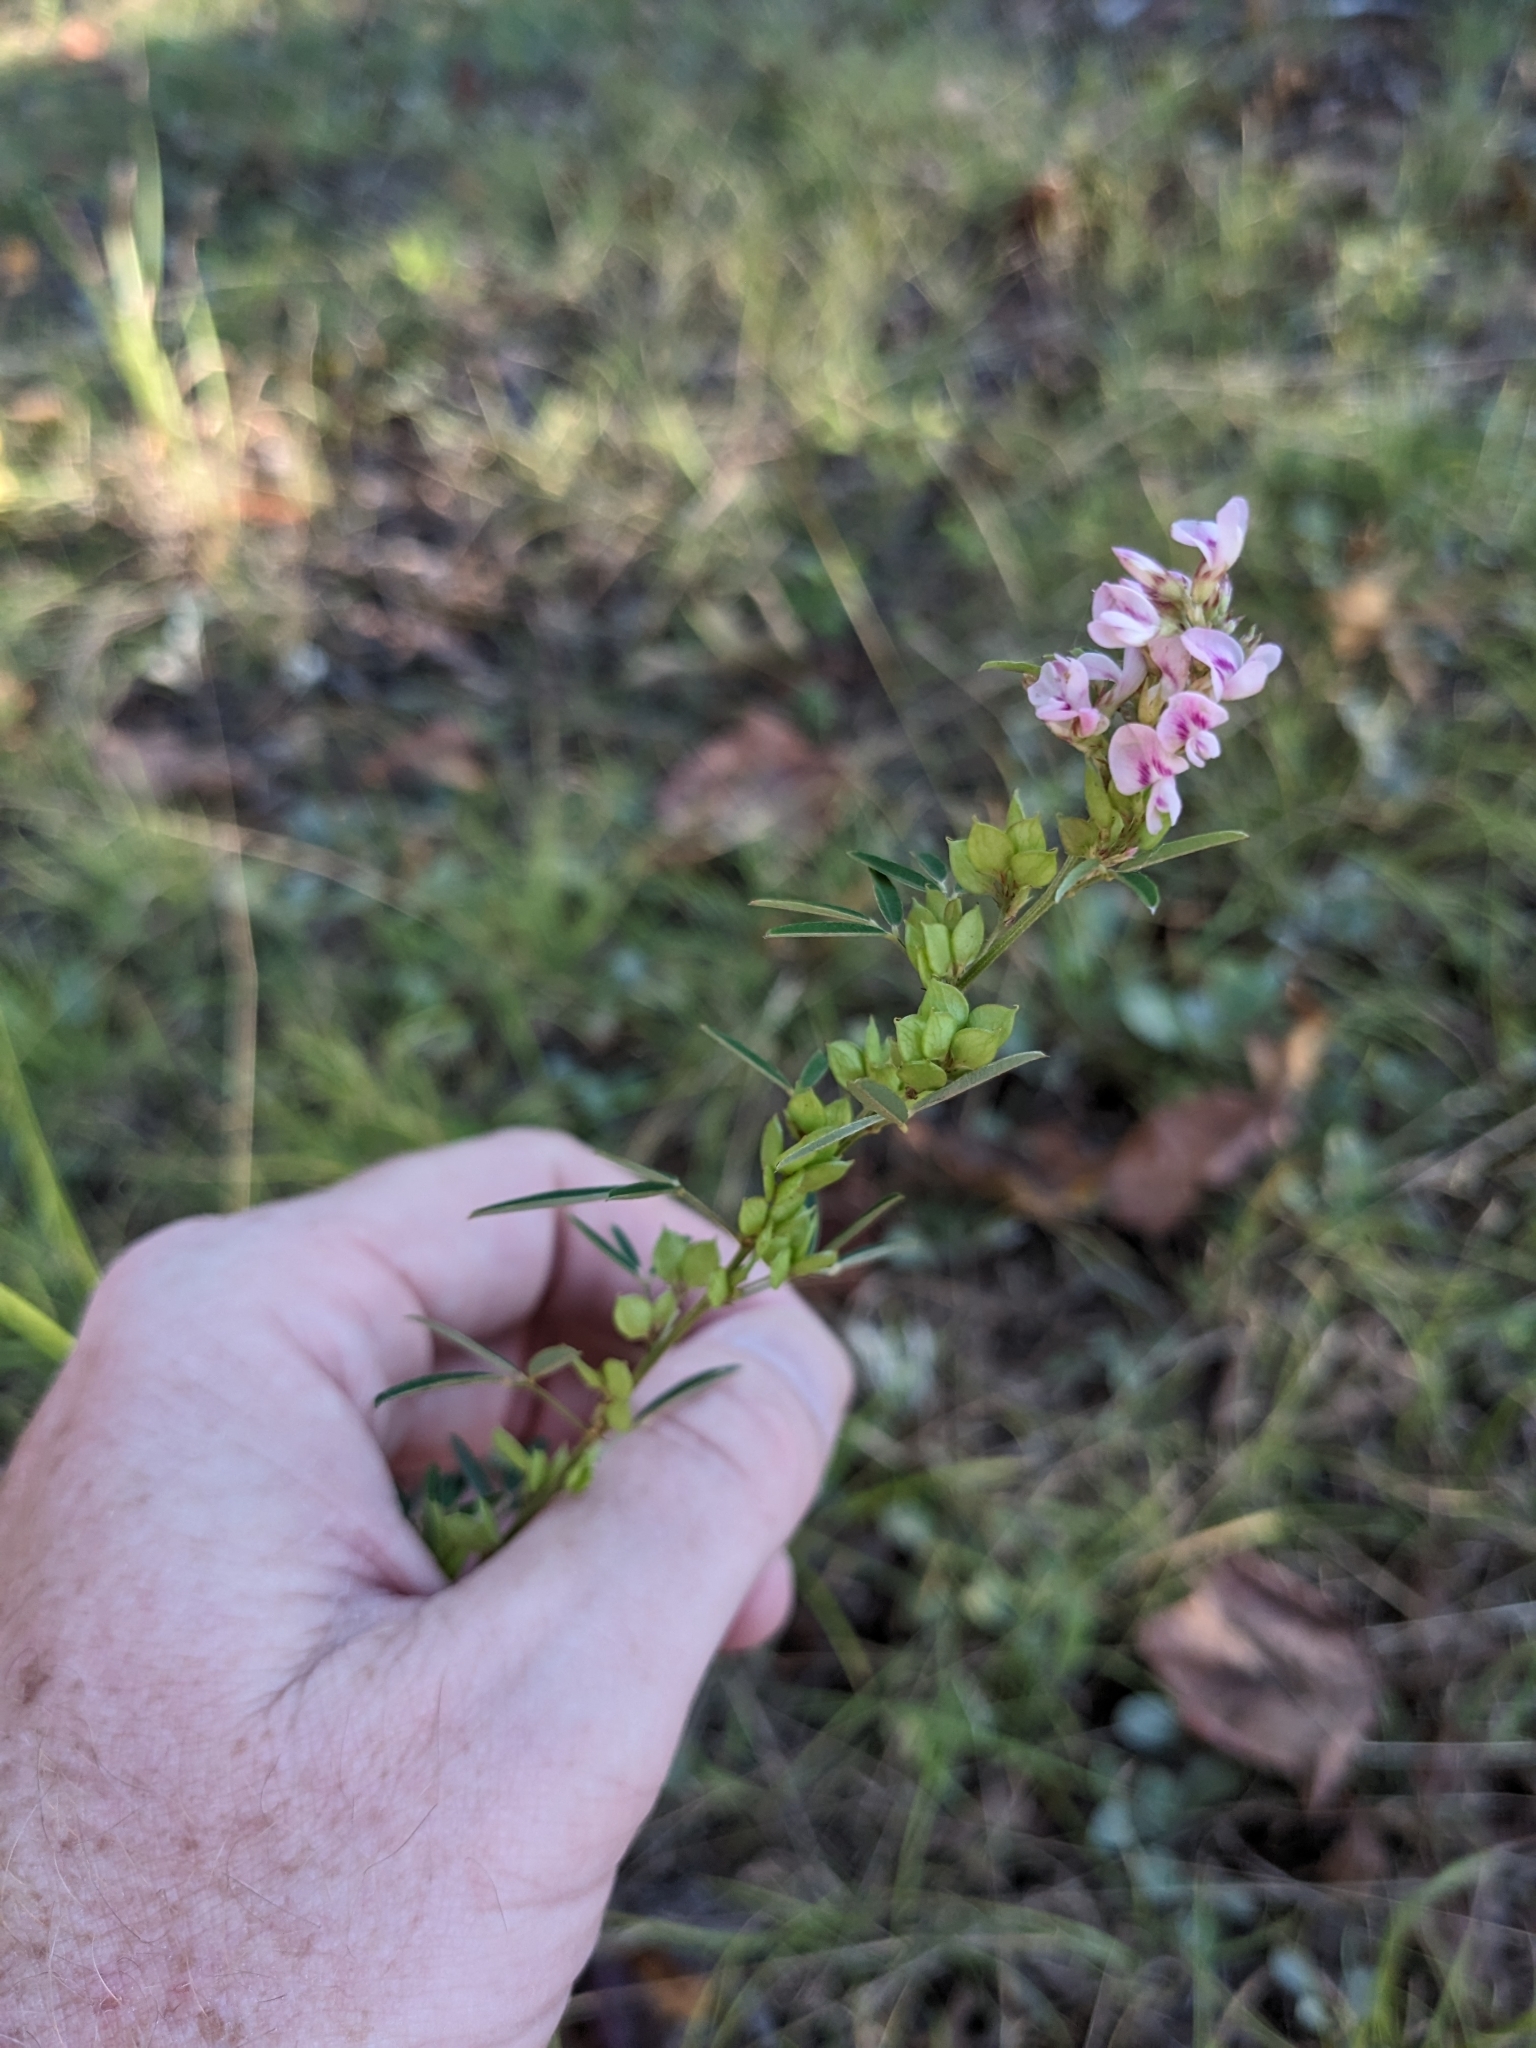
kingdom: Plantae
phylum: Tracheophyta
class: Magnoliopsida
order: Fabales
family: Fabaceae
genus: Lespedeza
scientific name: Lespedeza virginica
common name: Slender bush-clover
